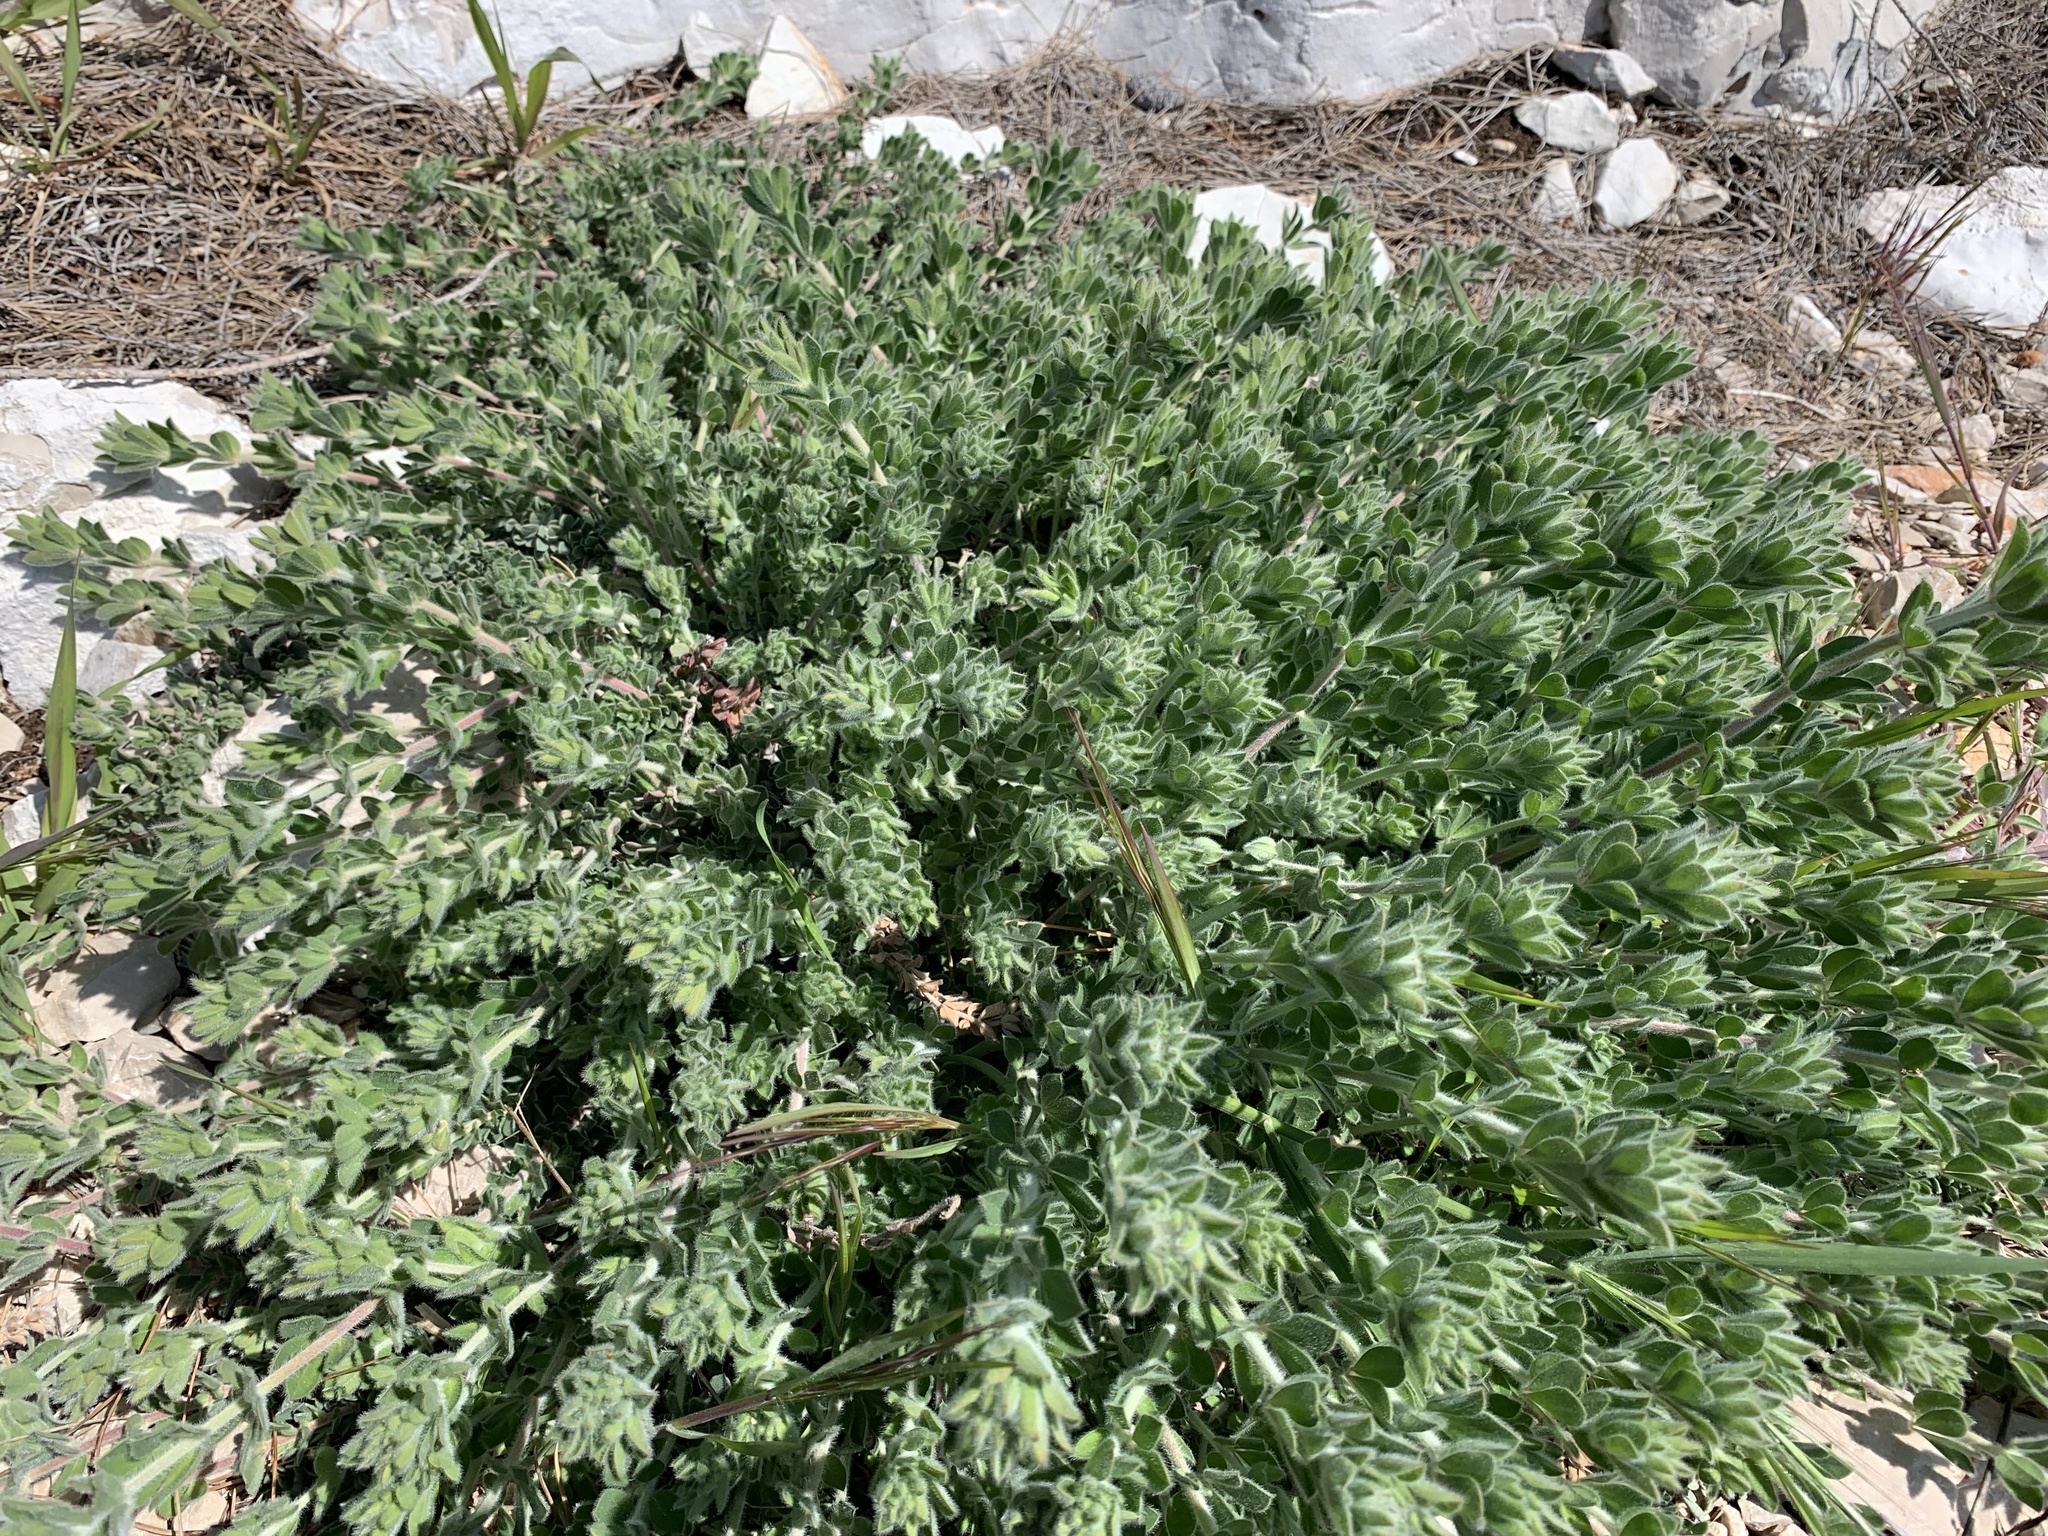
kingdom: Plantae
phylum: Tracheophyta
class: Magnoliopsida
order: Fabales
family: Fabaceae
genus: Lotus
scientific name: Lotus hirsutus
